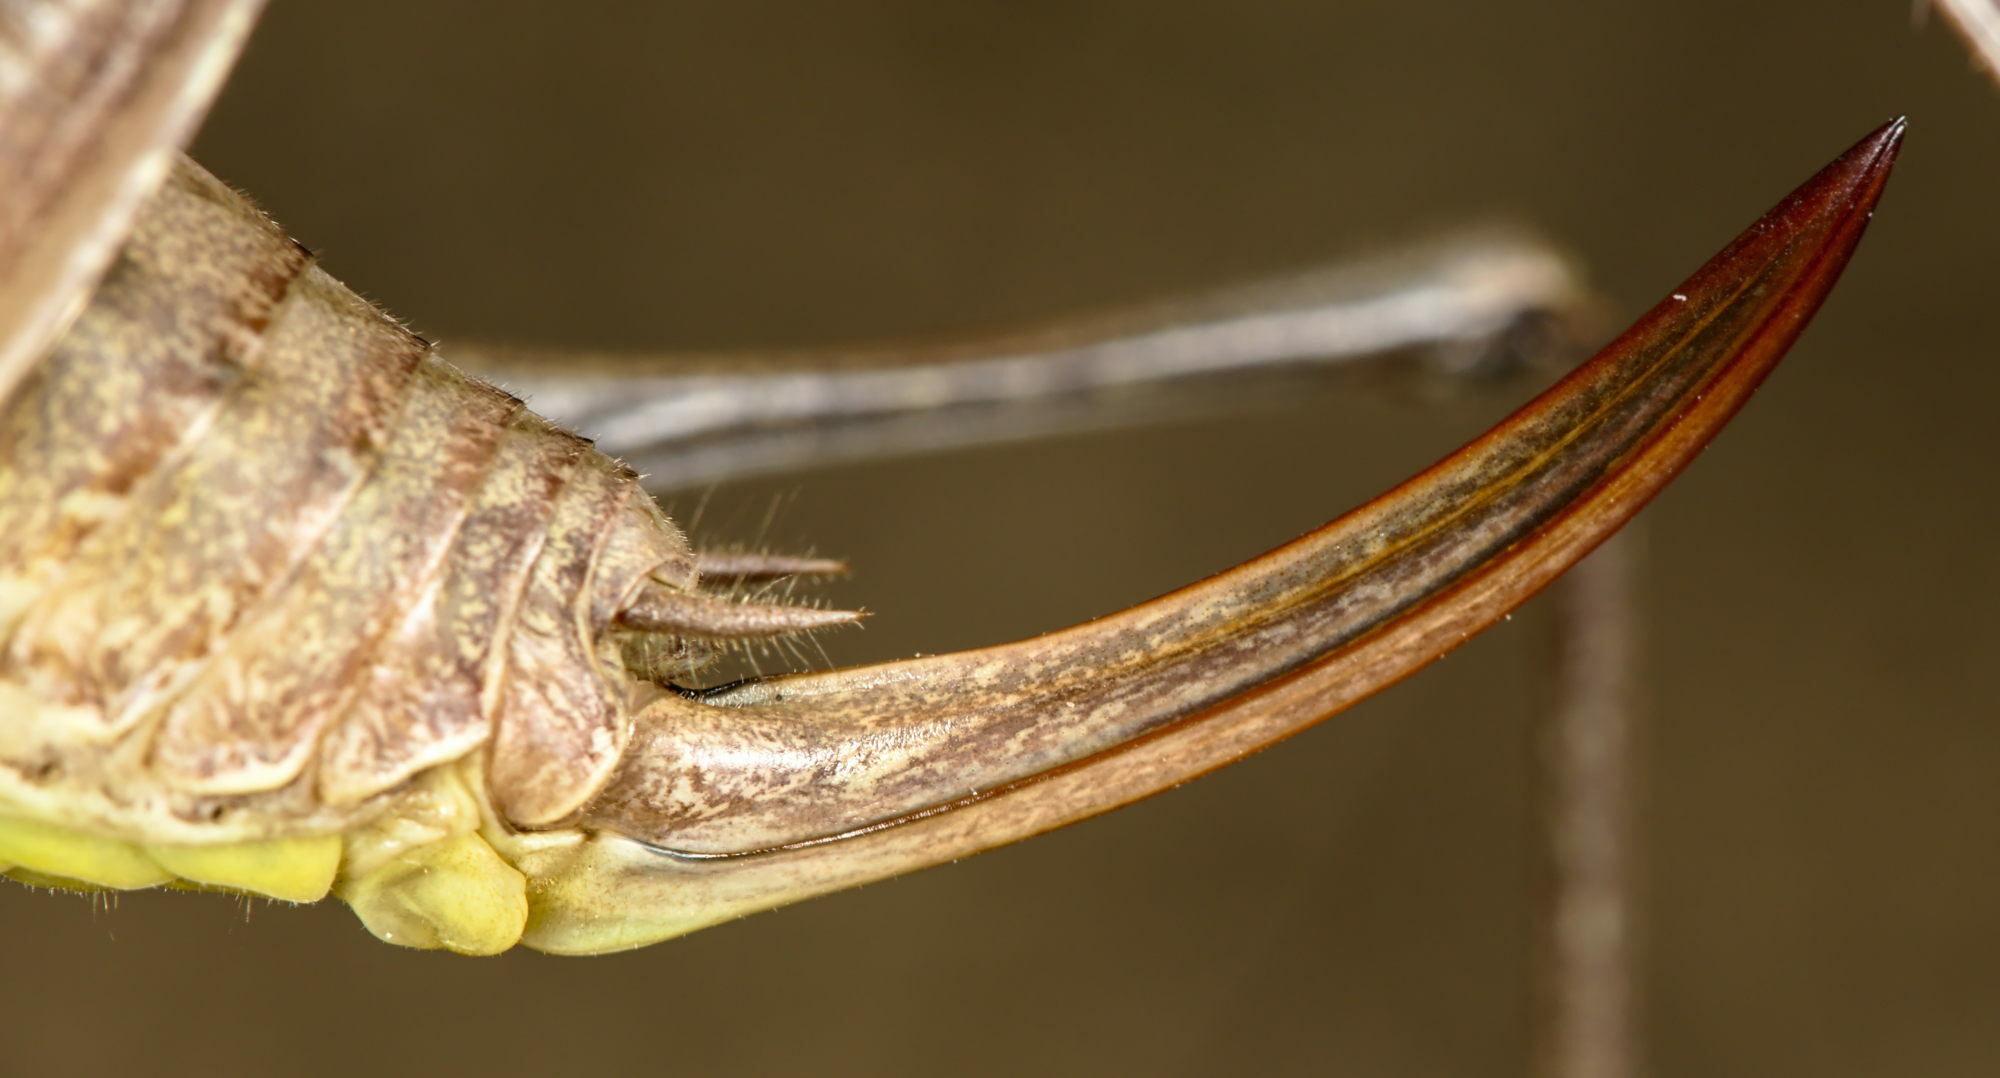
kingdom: Animalia
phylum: Arthropoda
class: Insecta
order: Orthoptera
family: Tettigoniidae
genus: Pholidoptera
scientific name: Pholidoptera fallax
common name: Fischer's bush-cricket
